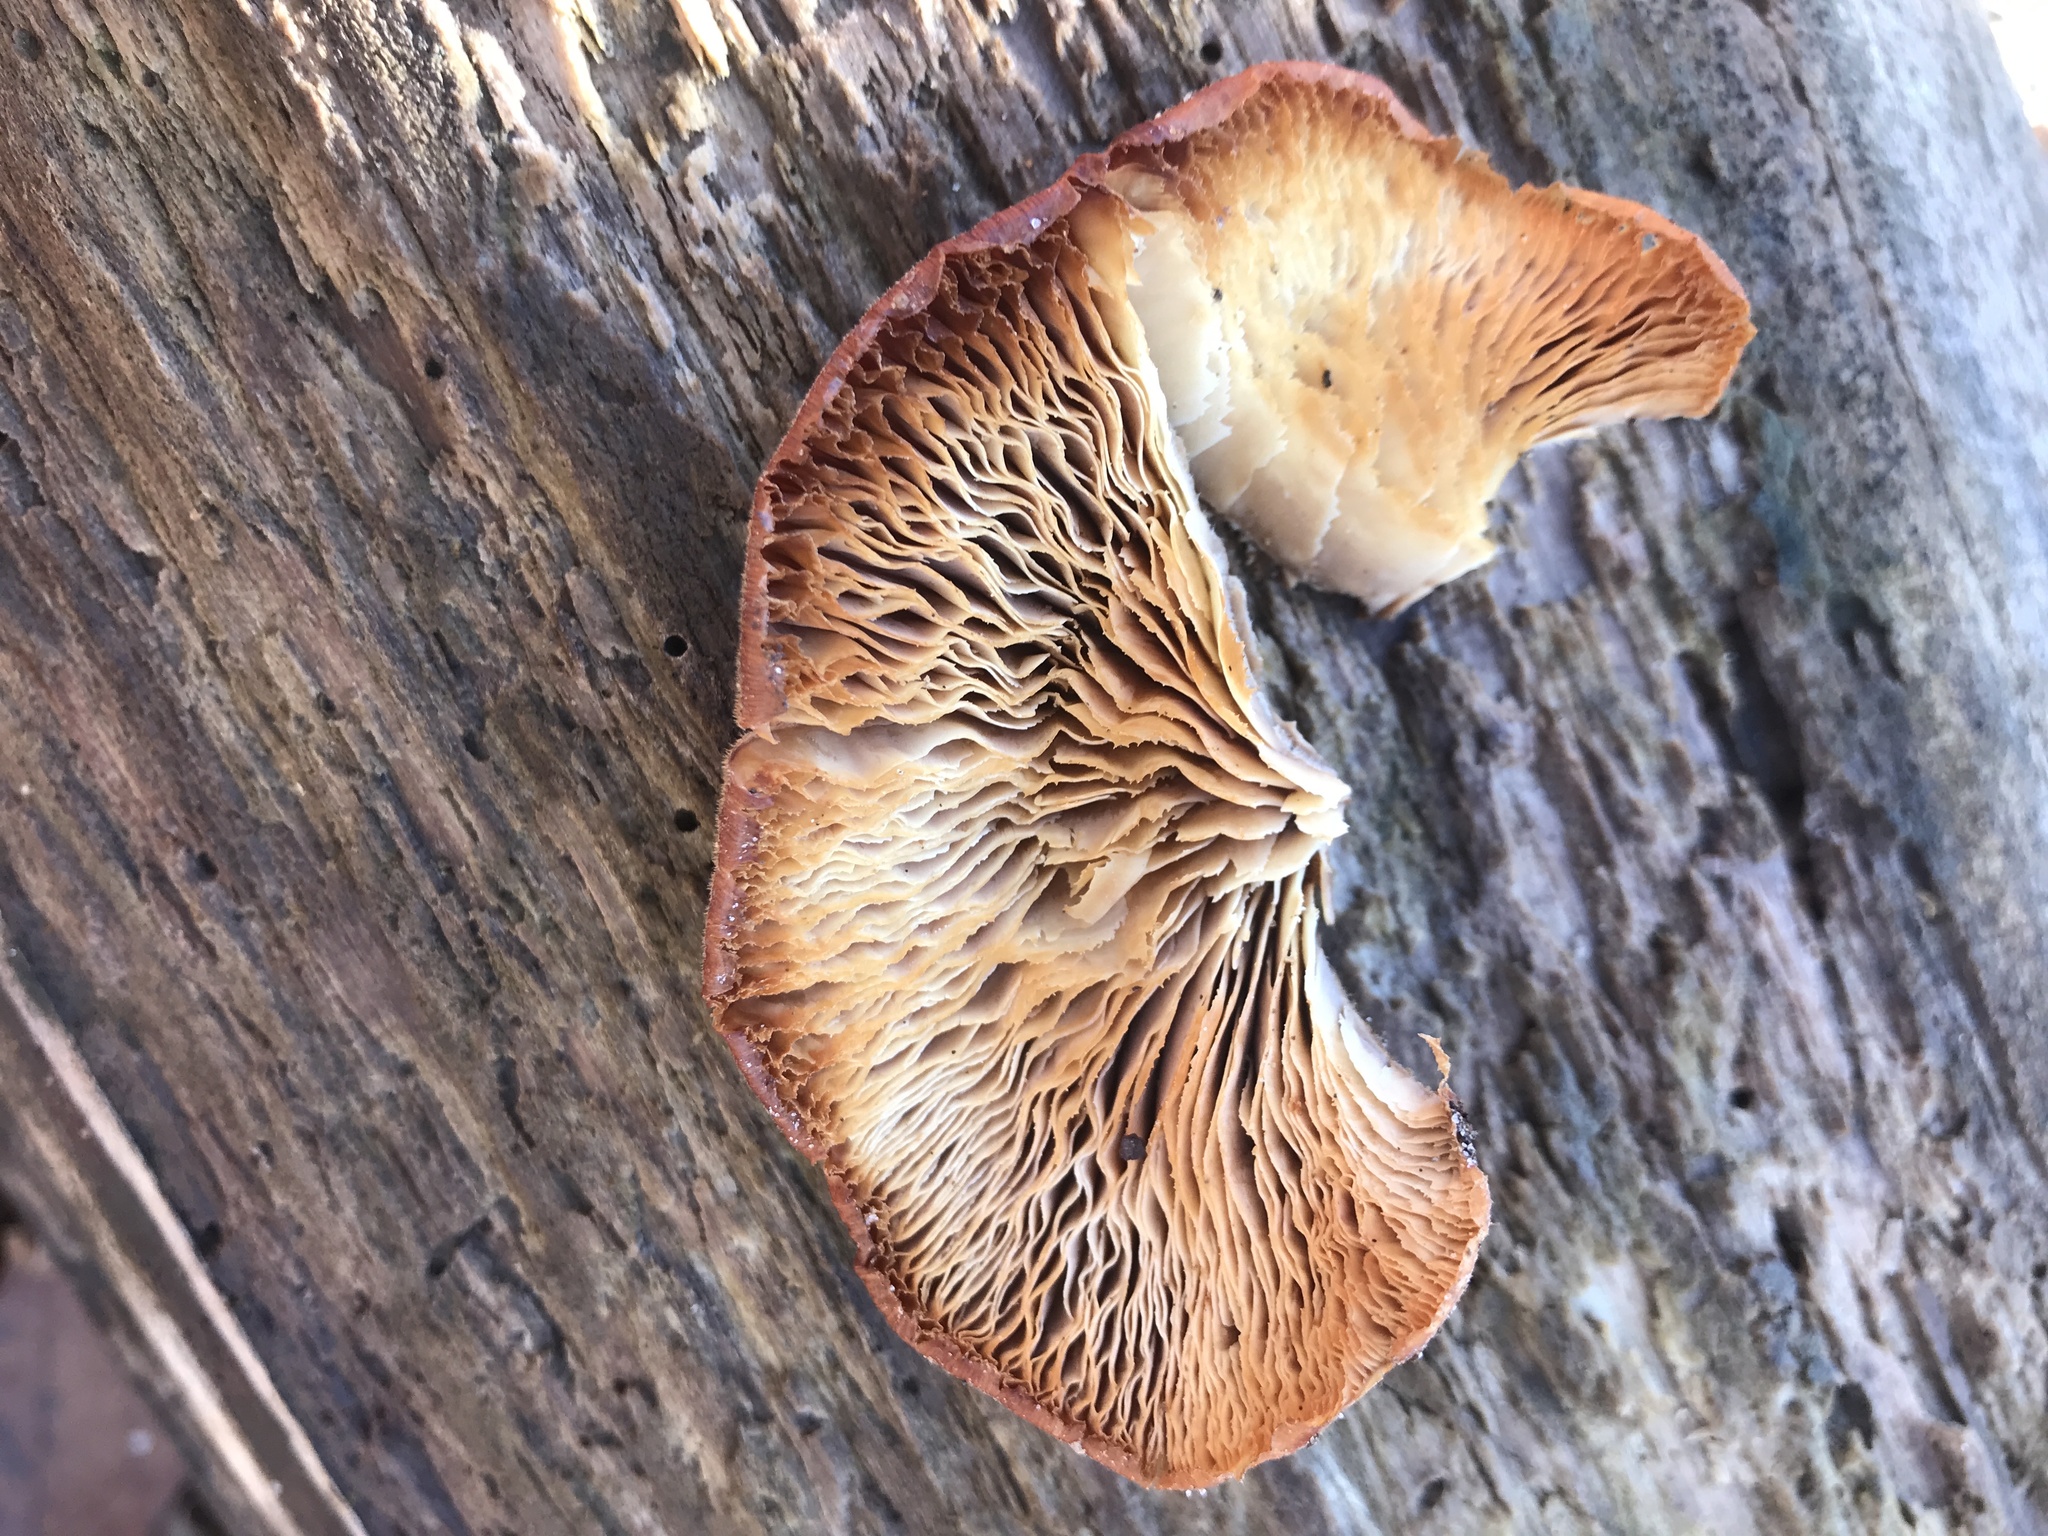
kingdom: Fungi
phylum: Basidiomycota
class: Agaricomycetes
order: Russulales
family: Auriscalpiaceae
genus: Lentinellus
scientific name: Lentinellus ursinus
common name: Bear lentinus
